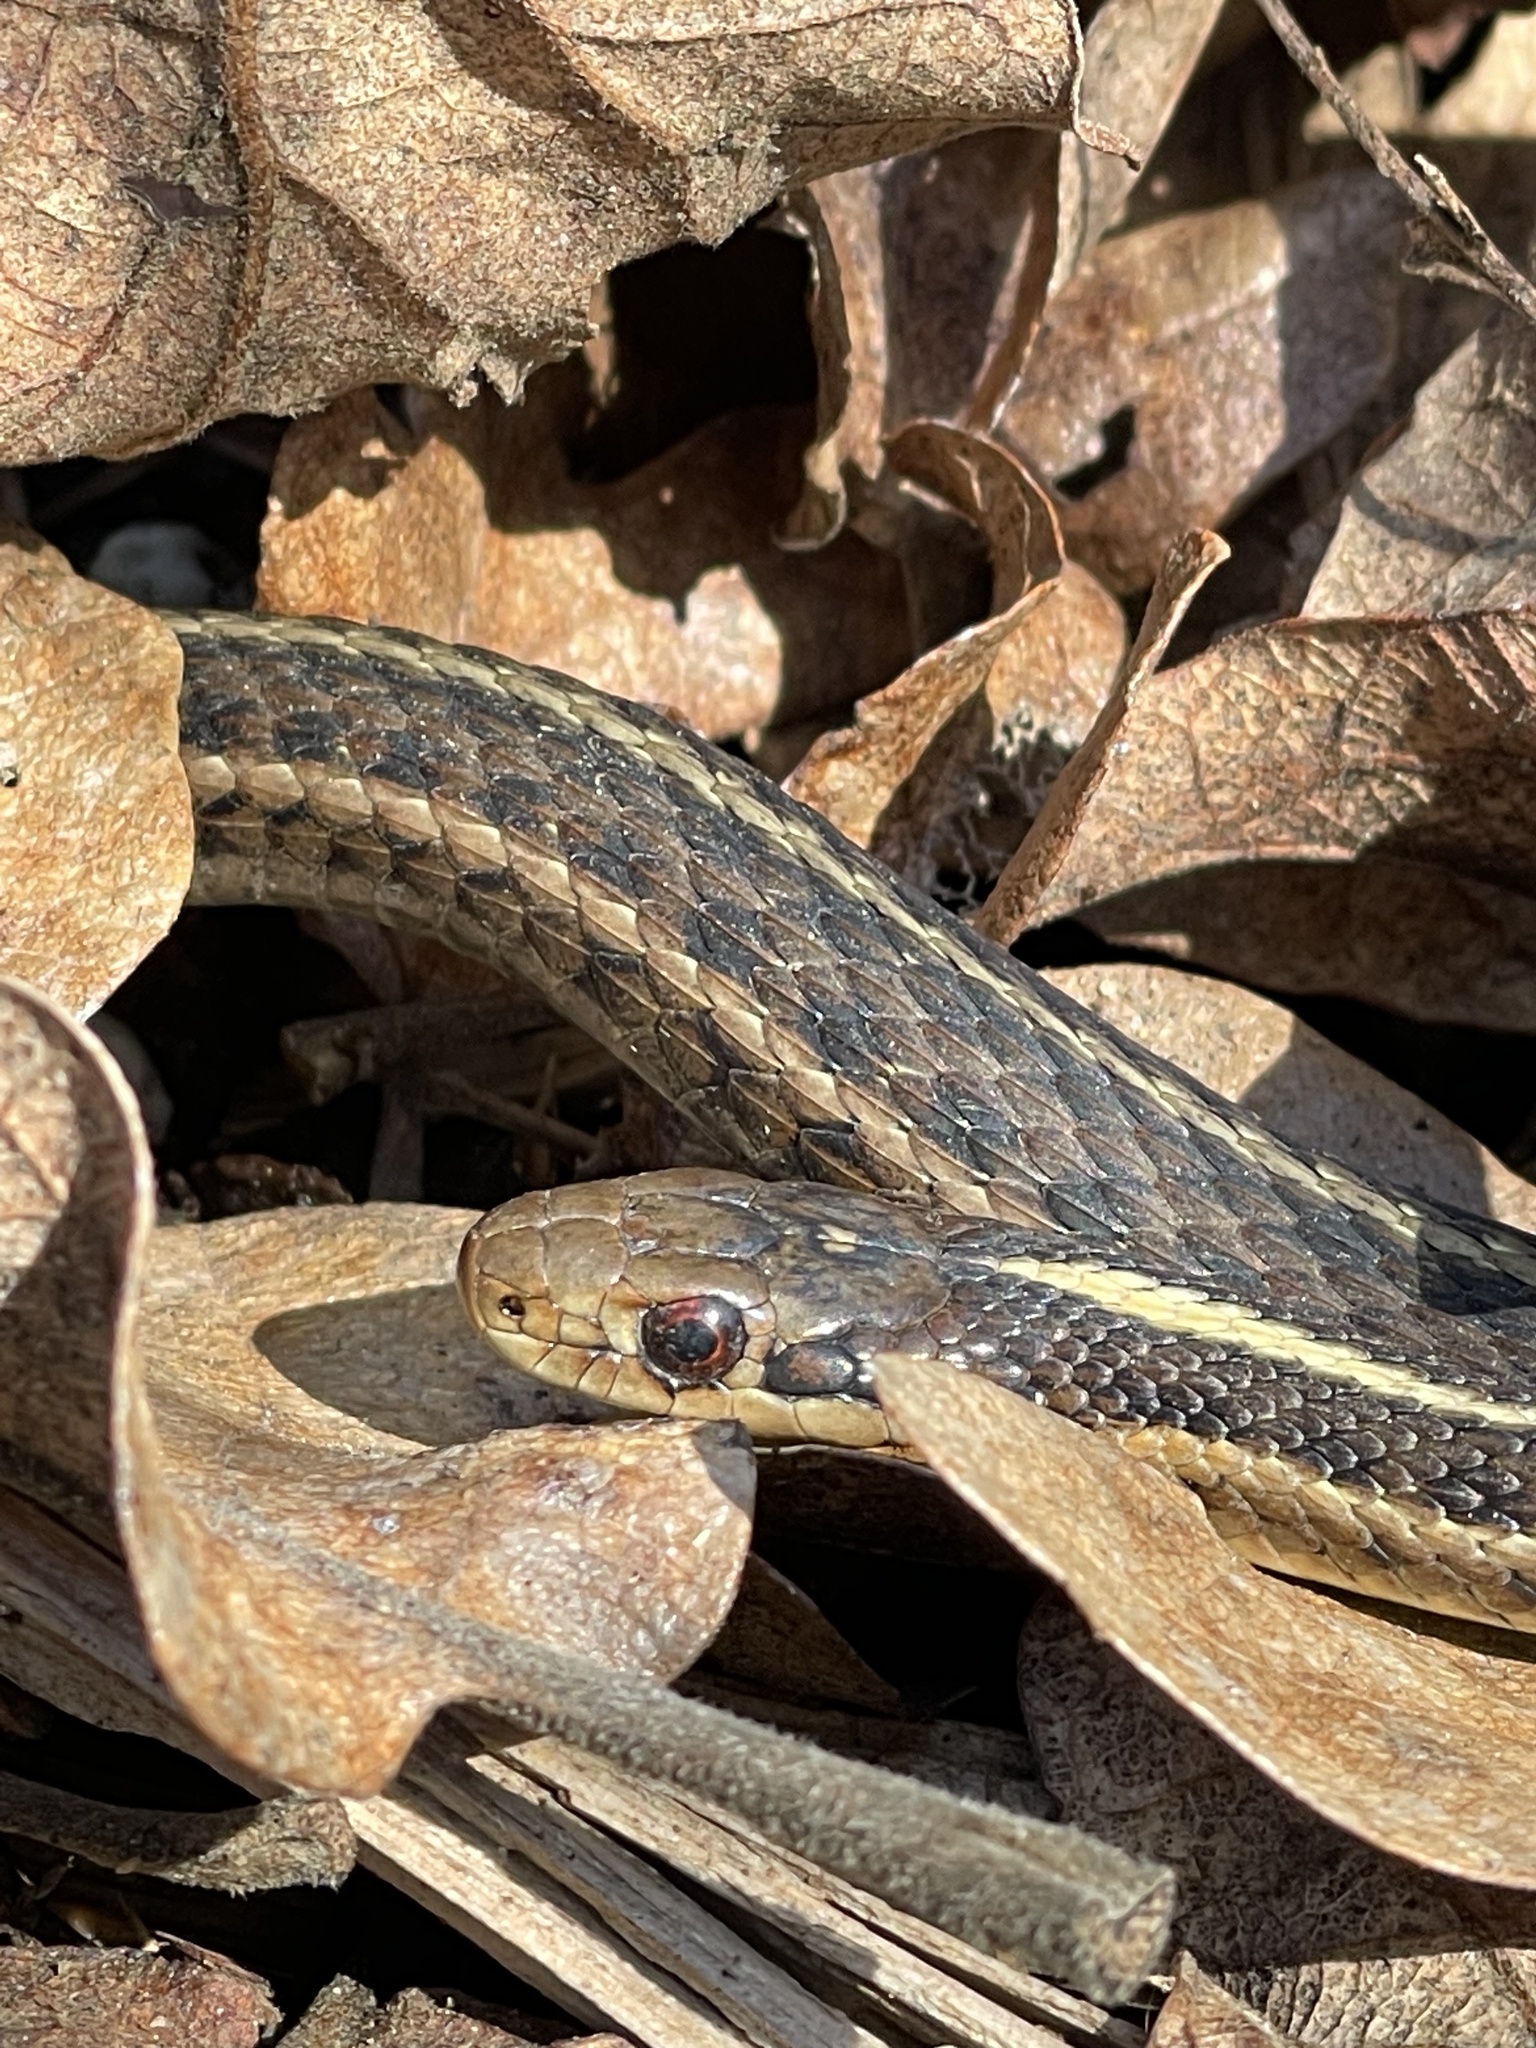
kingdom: Animalia
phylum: Chordata
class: Squamata
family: Colubridae
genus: Thamnophis
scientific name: Thamnophis ordinoides
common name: Northwestern garter snake
